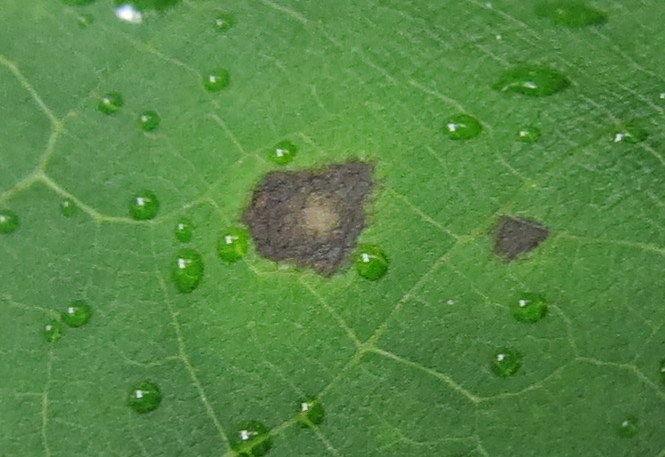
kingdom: Fungi
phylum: Ascomycota
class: Dothideomycetes
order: Mycosphaerellales
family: Mycosphaerellaceae
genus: Paracercosporidium
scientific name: Paracercosporidium microsorum
